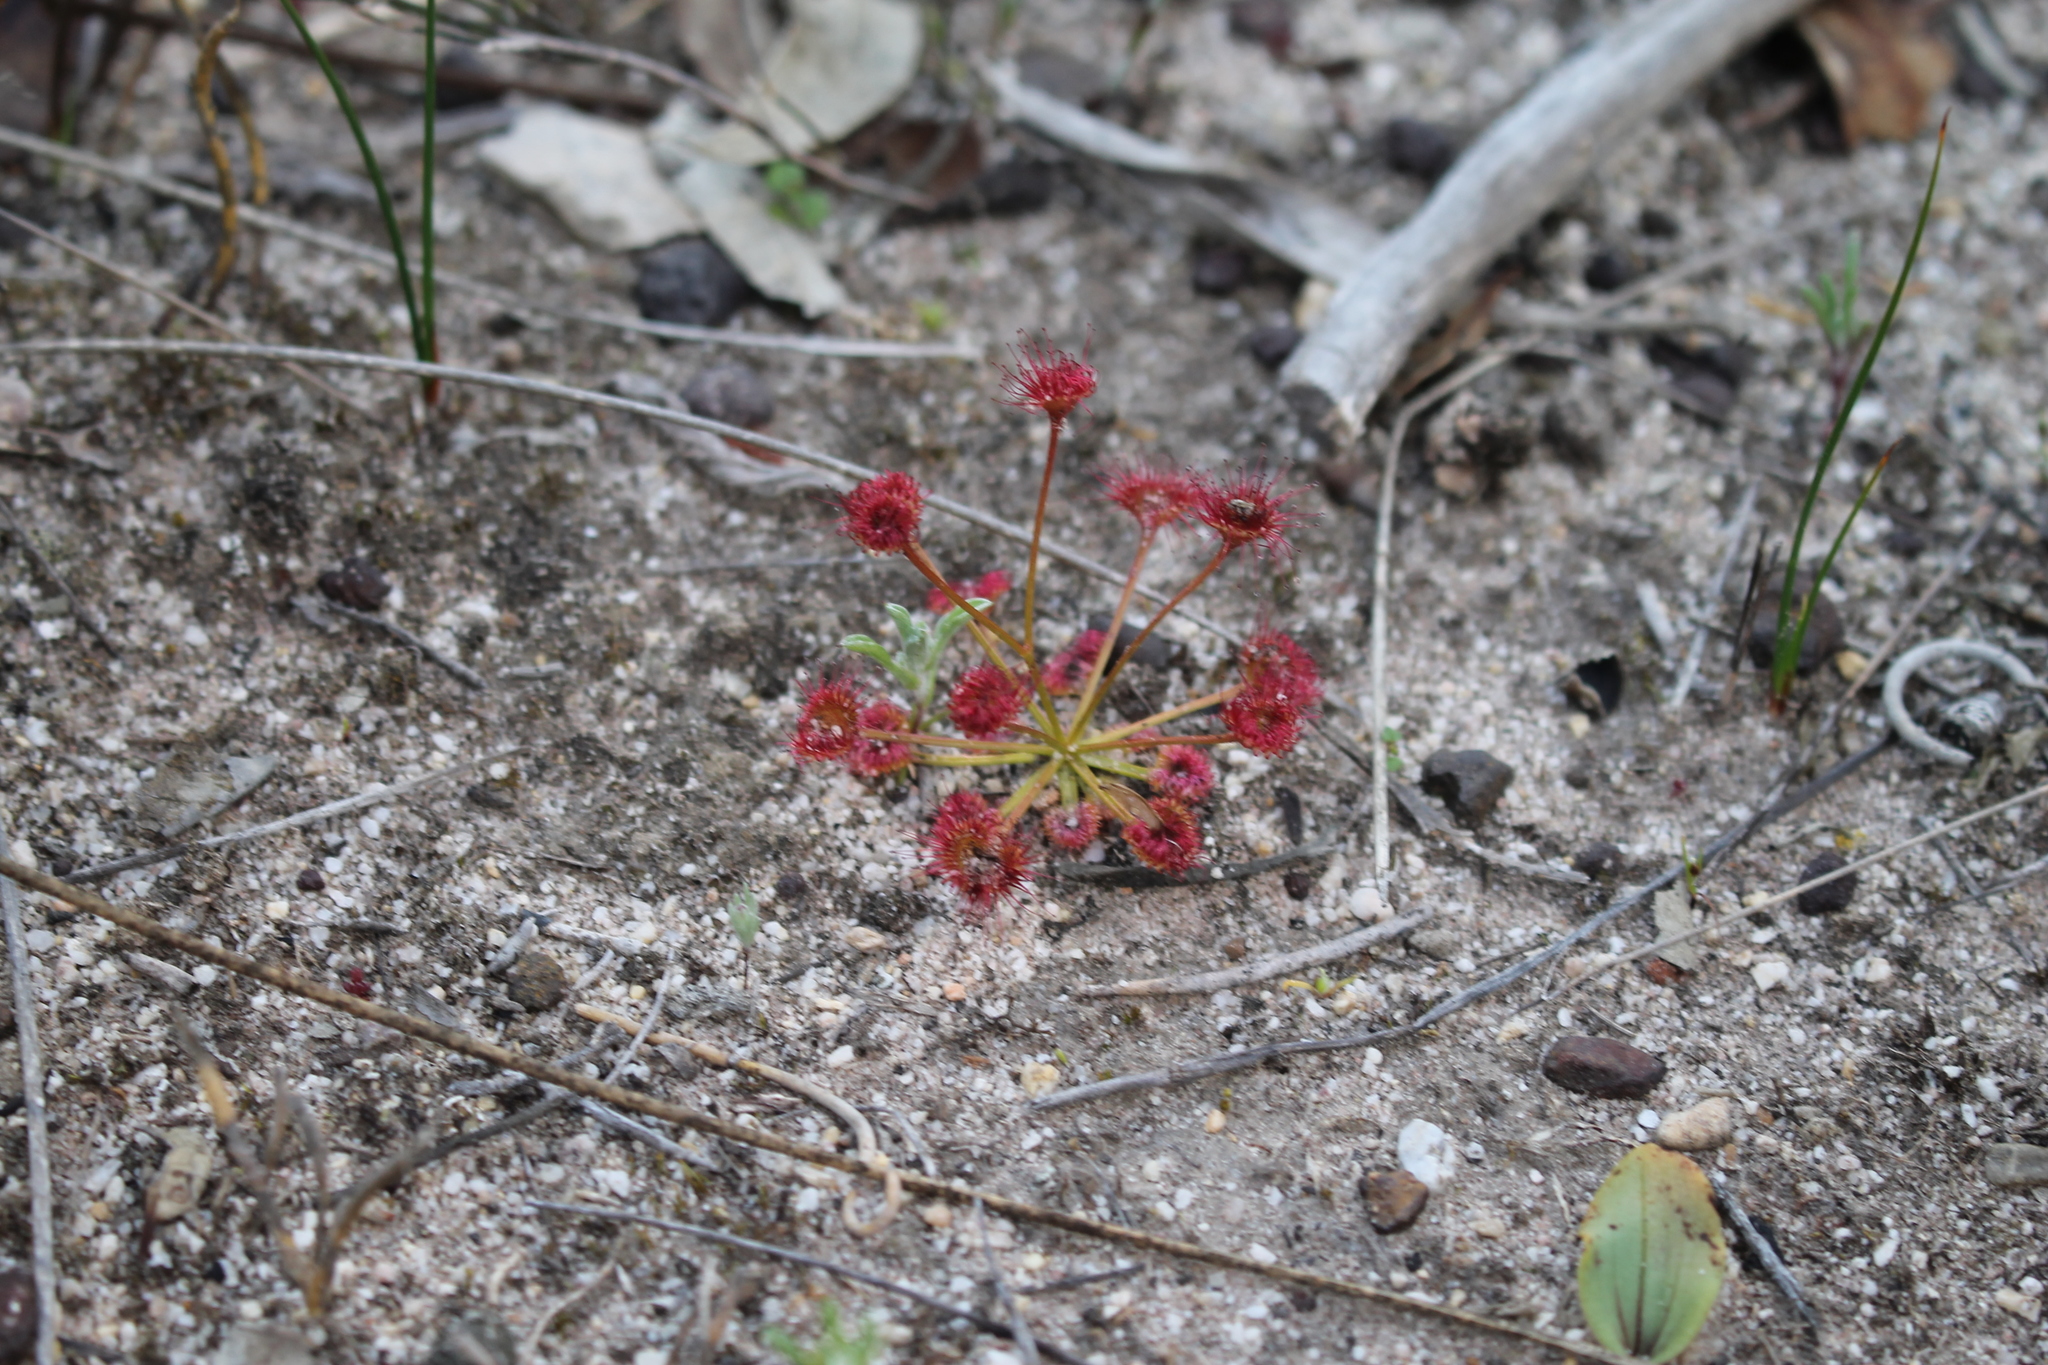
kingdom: Plantae
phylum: Tracheophyta
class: Magnoliopsida
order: Caryophyllales
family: Droseraceae
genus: Drosera
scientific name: Drosera stolonifera
